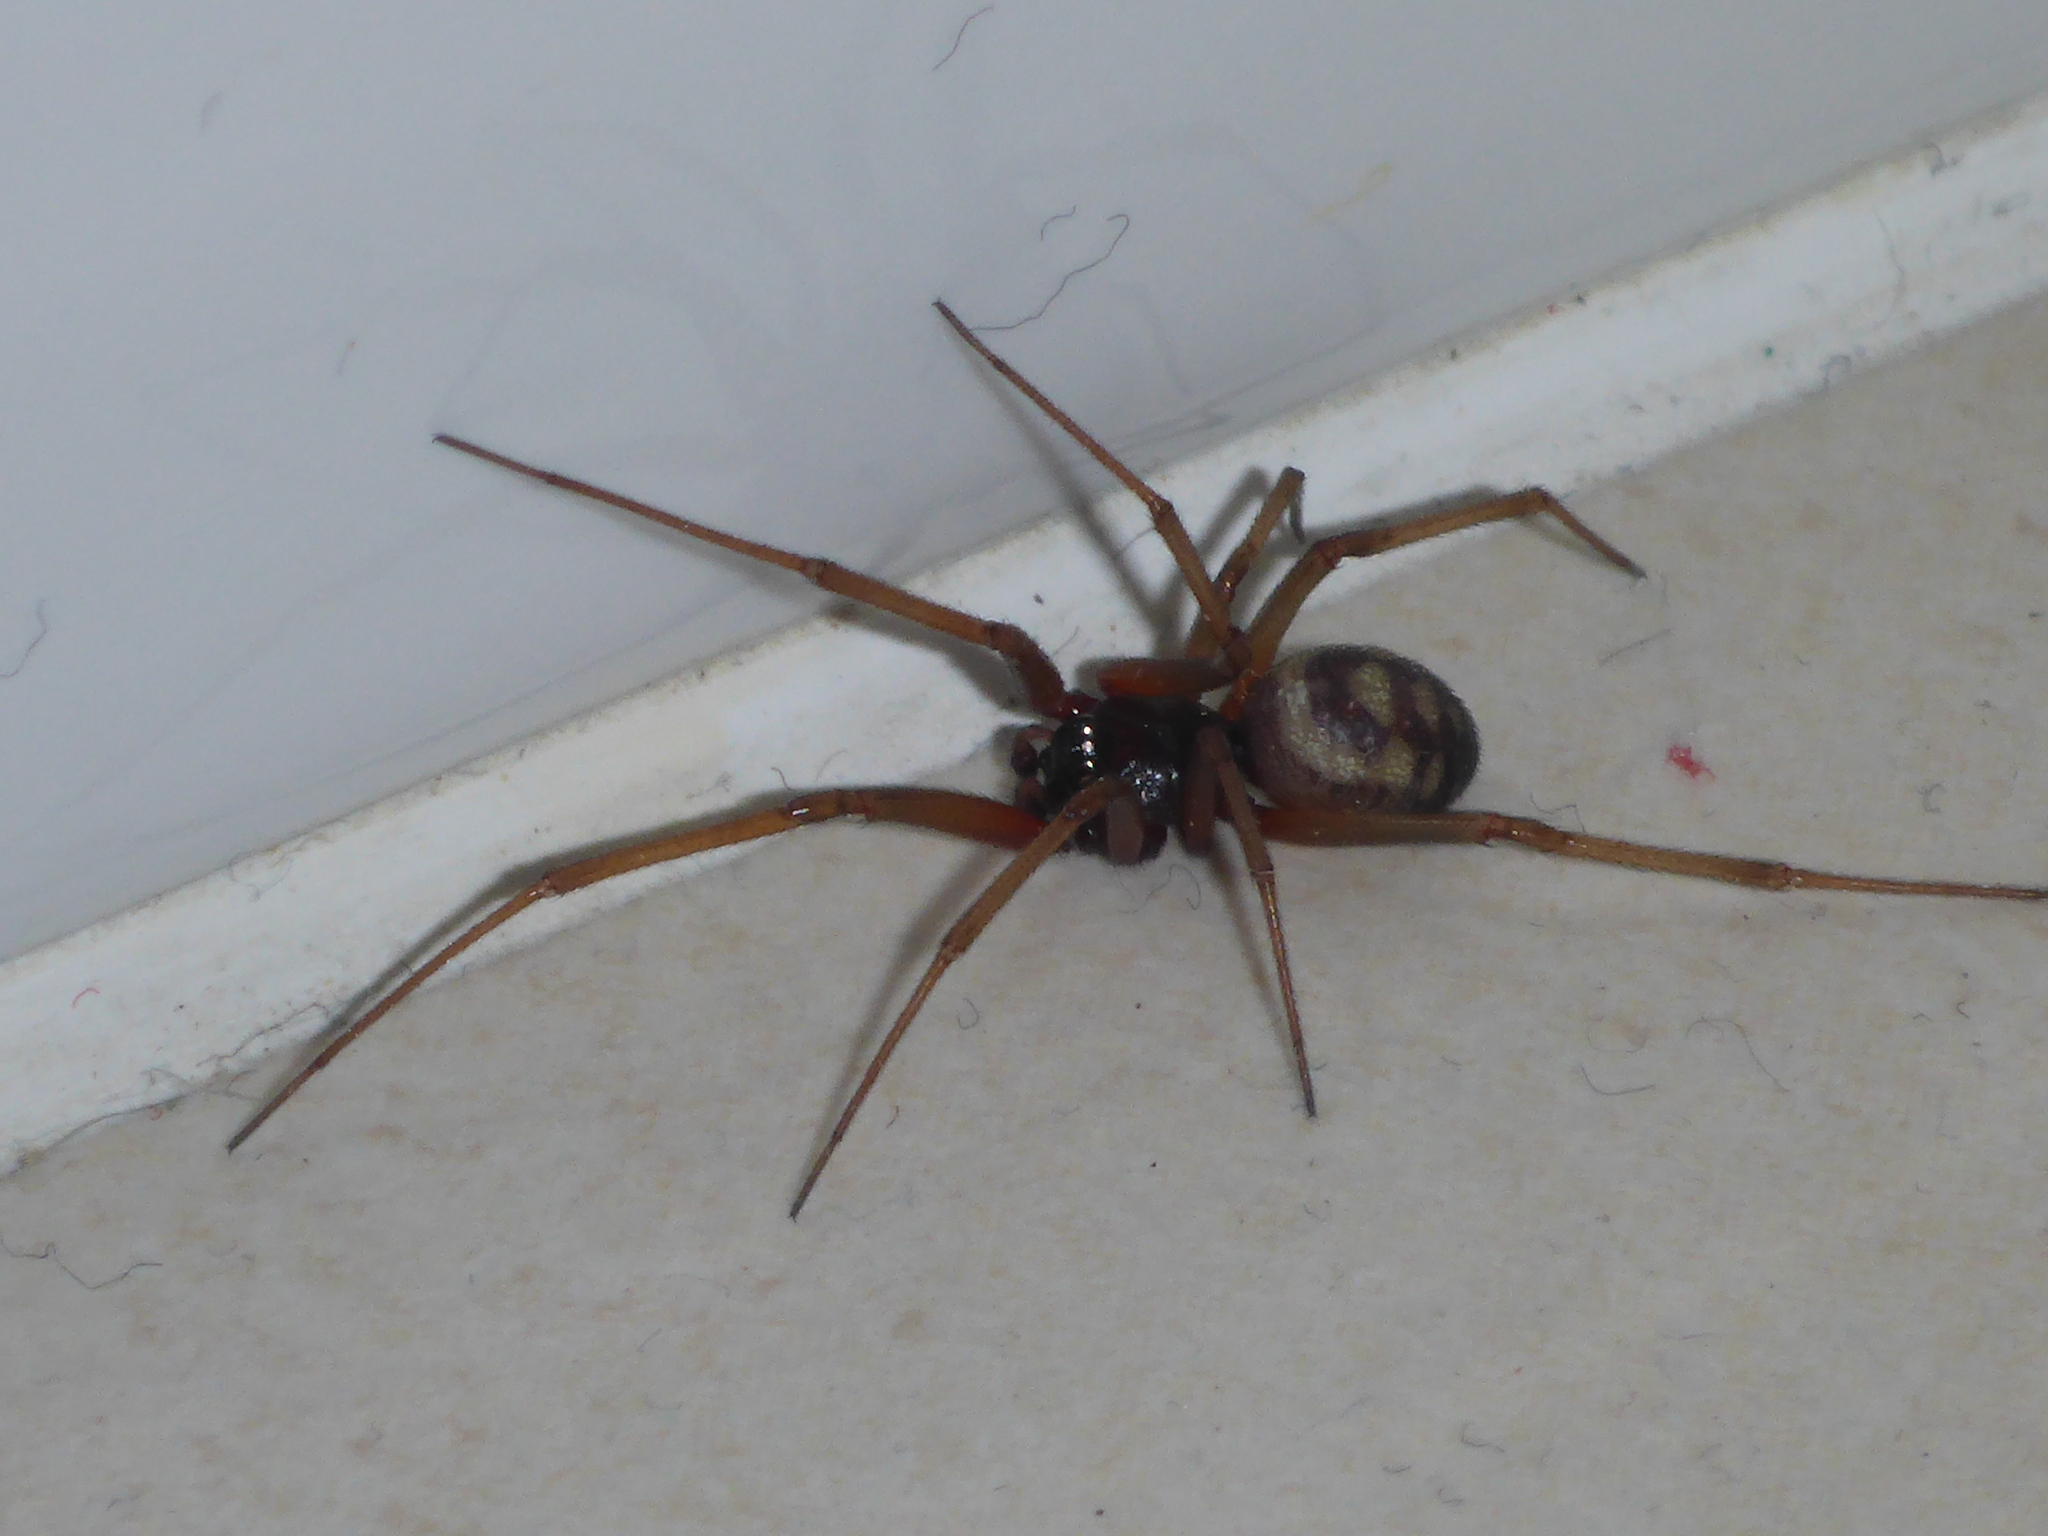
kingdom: Animalia
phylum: Arthropoda
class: Arachnida
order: Araneae
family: Theridiidae
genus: Steatoda
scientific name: Steatoda grossa
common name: False black widow
